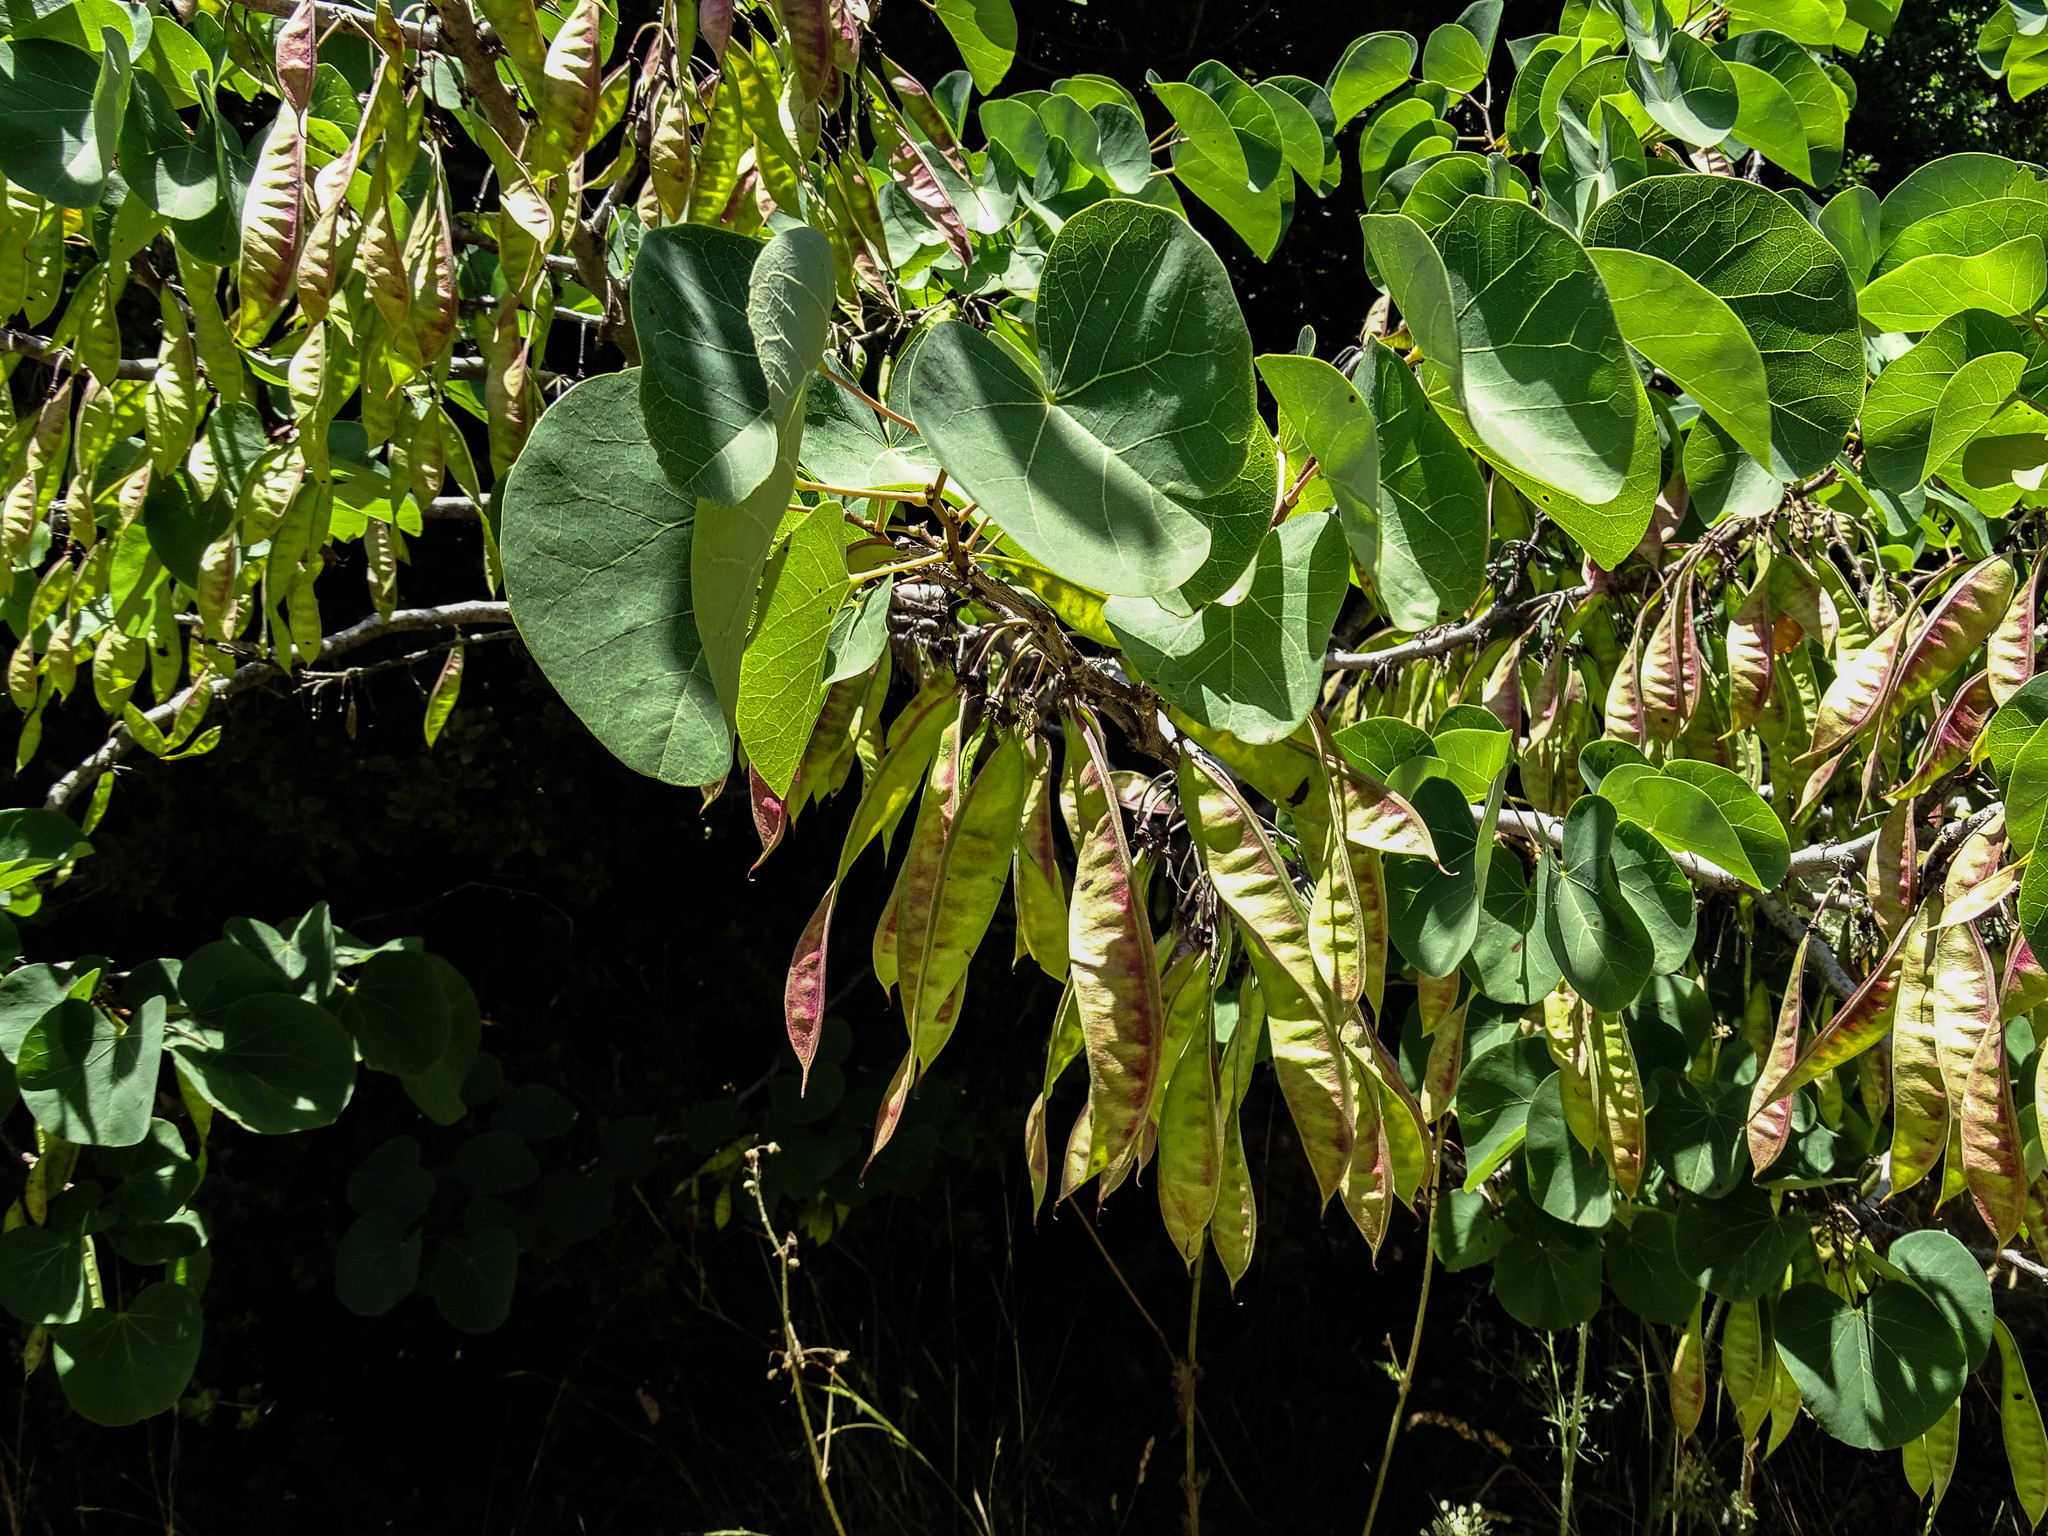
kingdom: Plantae
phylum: Tracheophyta
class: Magnoliopsida
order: Fabales
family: Fabaceae
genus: Cercis
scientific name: Cercis siliquastrum
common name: Judas tree
